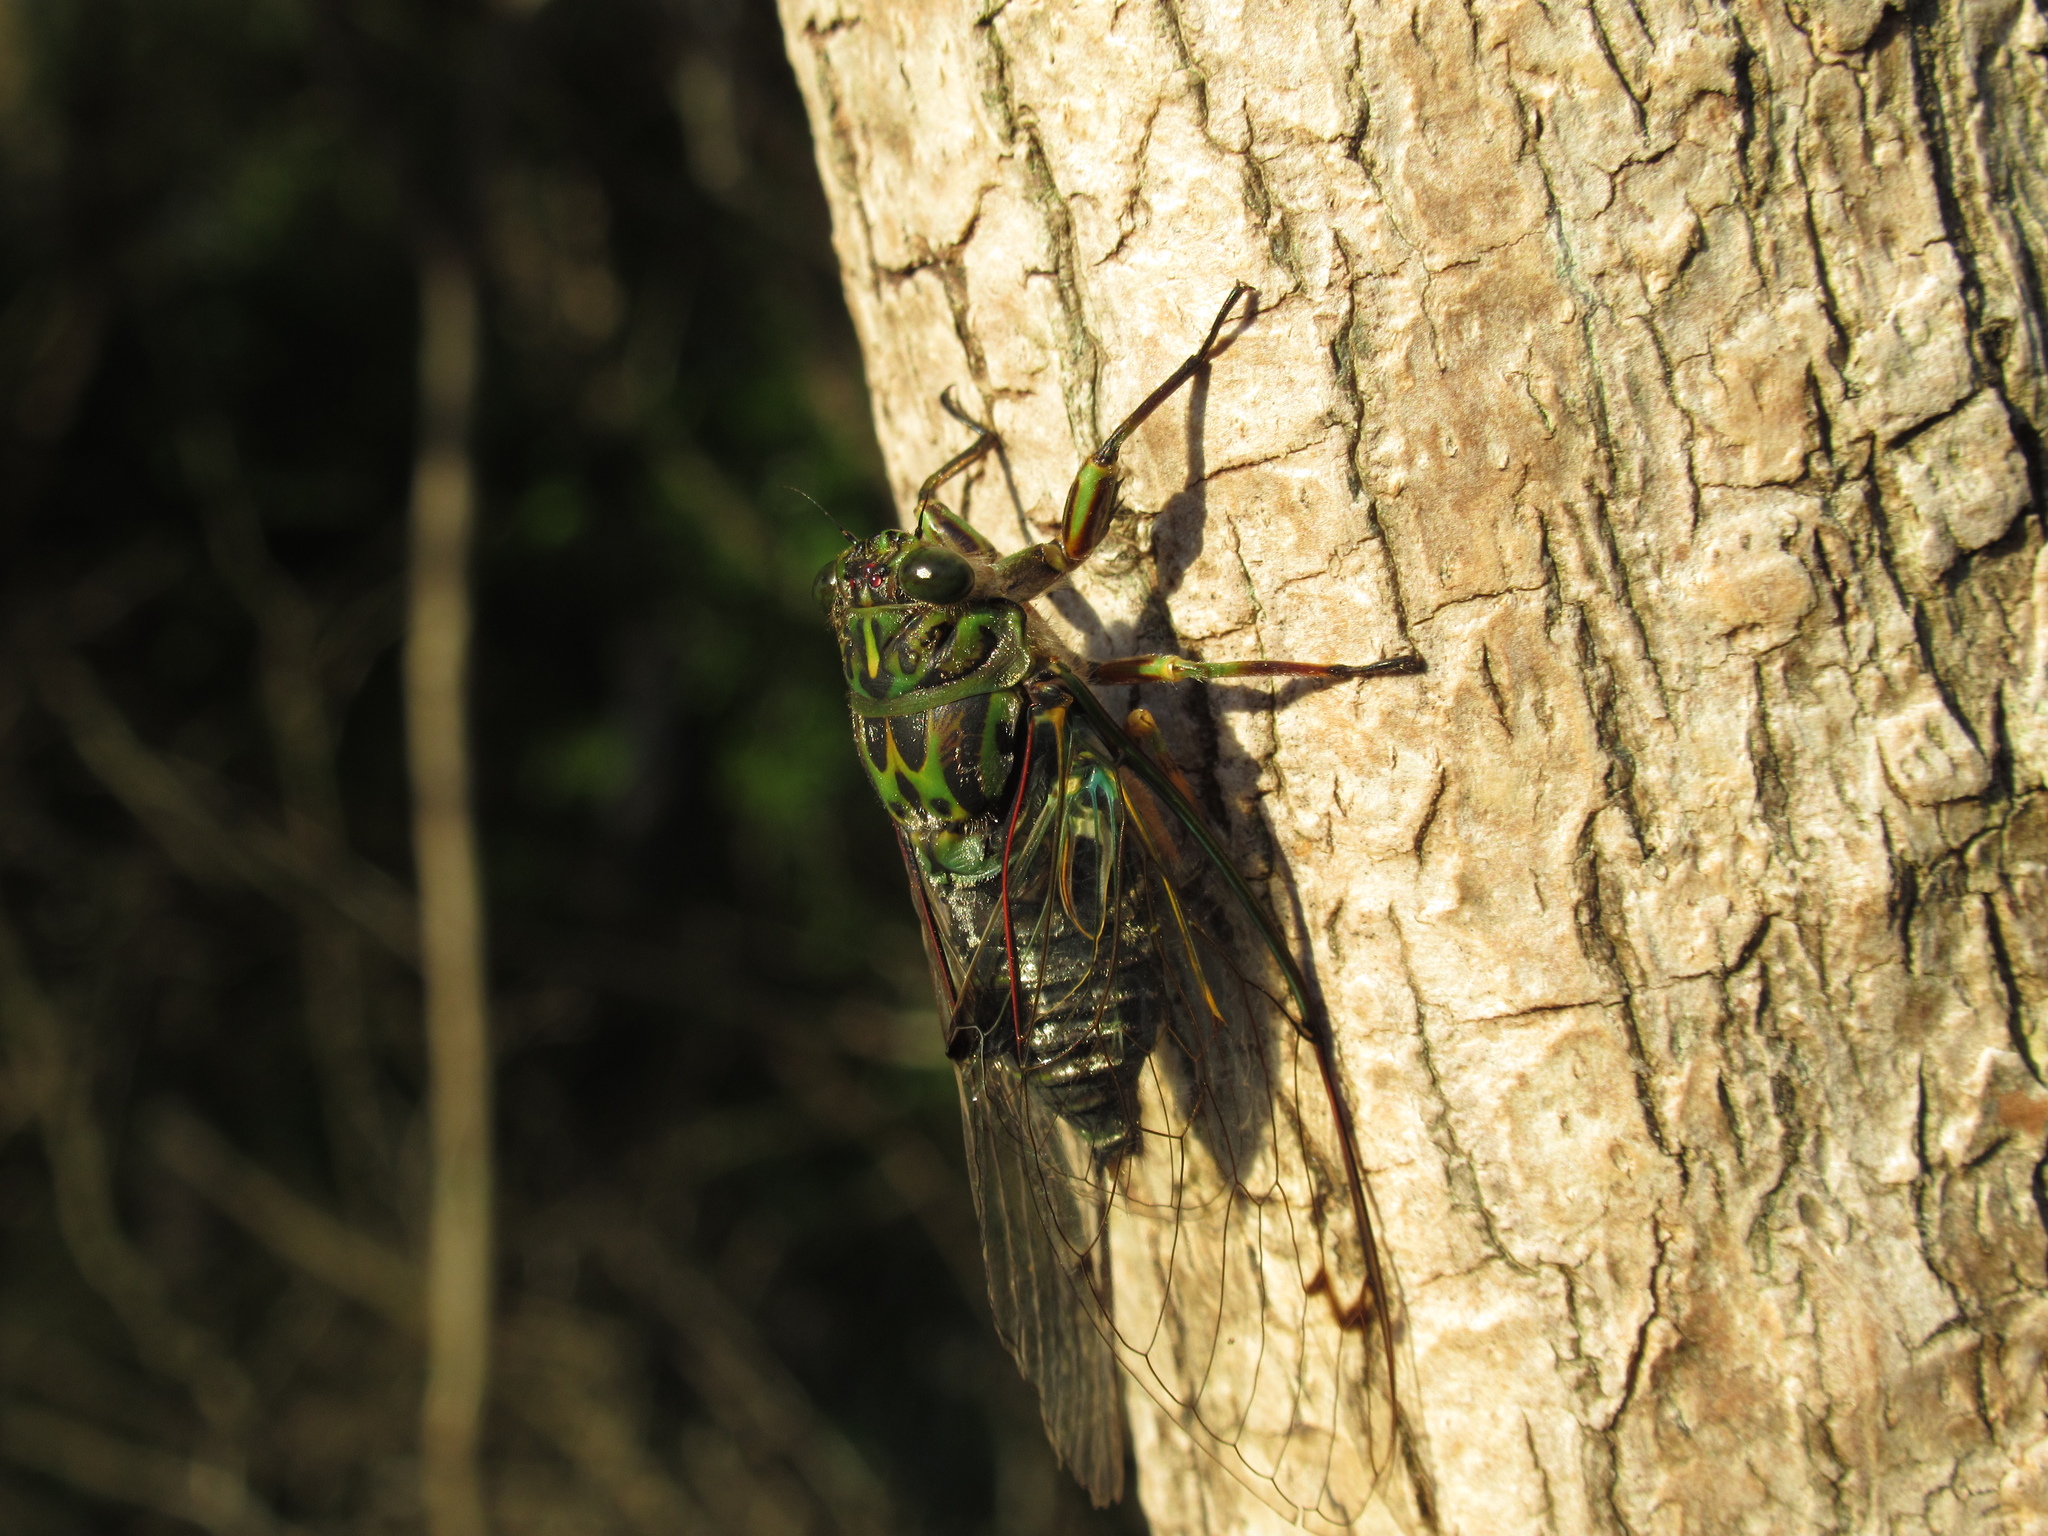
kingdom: Animalia
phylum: Arthropoda
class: Insecta
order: Hemiptera
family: Cicadidae
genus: Amphipsalta
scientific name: Amphipsalta zelandica
